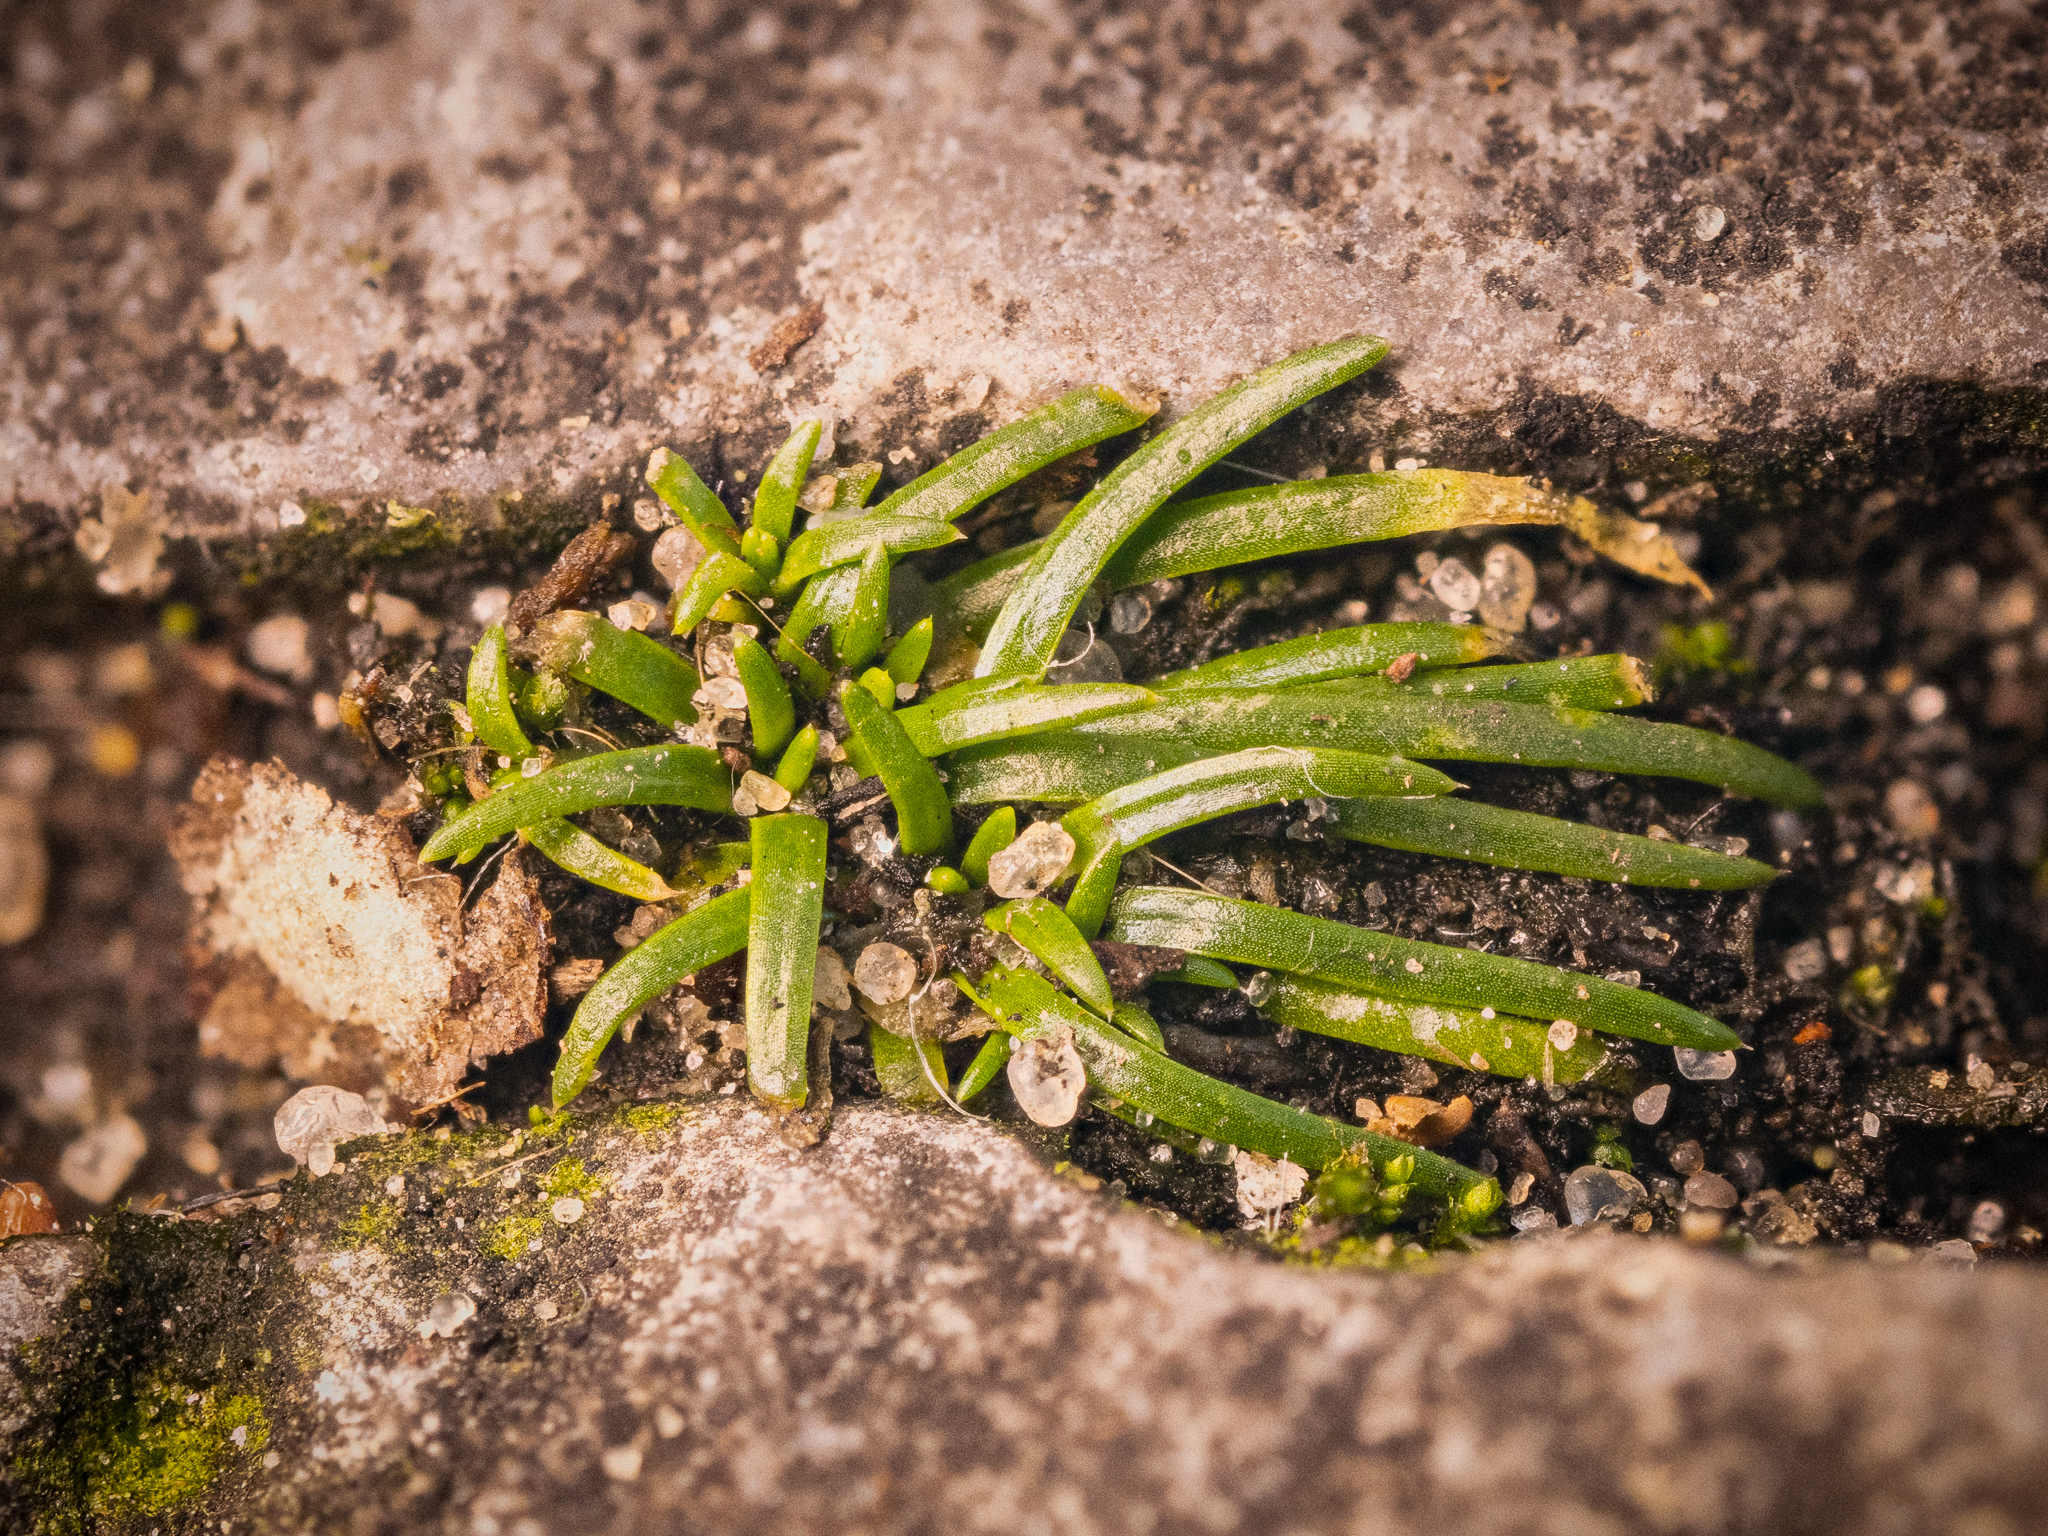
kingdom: Plantae
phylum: Tracheophyta
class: Magnoliopsida
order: Caryophyllales
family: Caryophyllaceae
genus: Sagina
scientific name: Sagina procumbens
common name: Procumbent pearlwort
